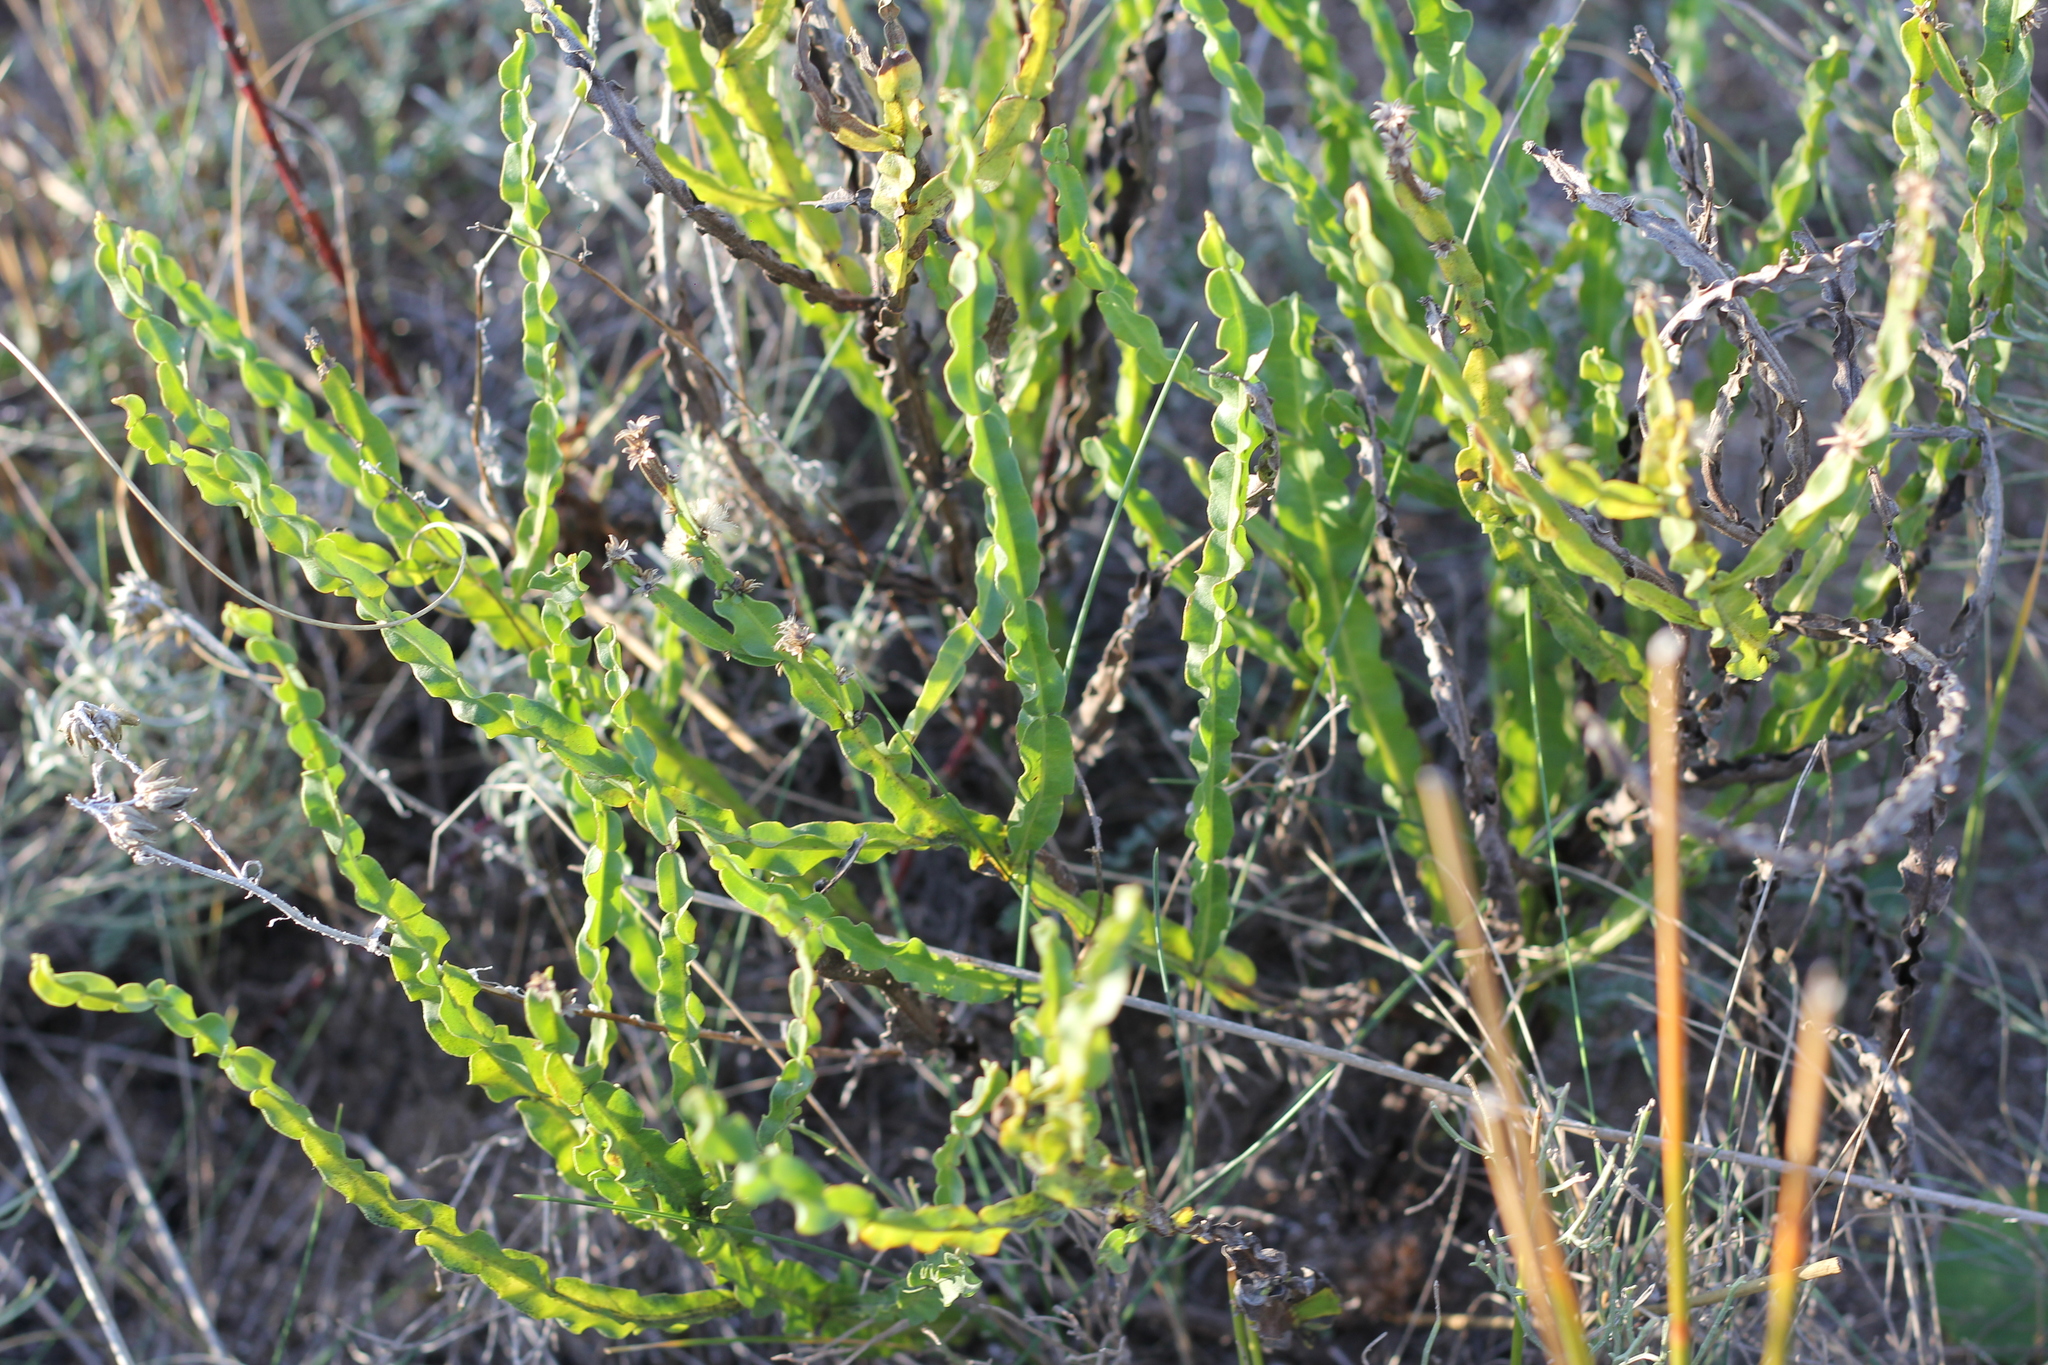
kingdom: Plantae
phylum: Tracheophyta
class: Magnoliopsida
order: Asterales
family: Asteraceae
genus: Baccharis
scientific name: Baccharis trimera
